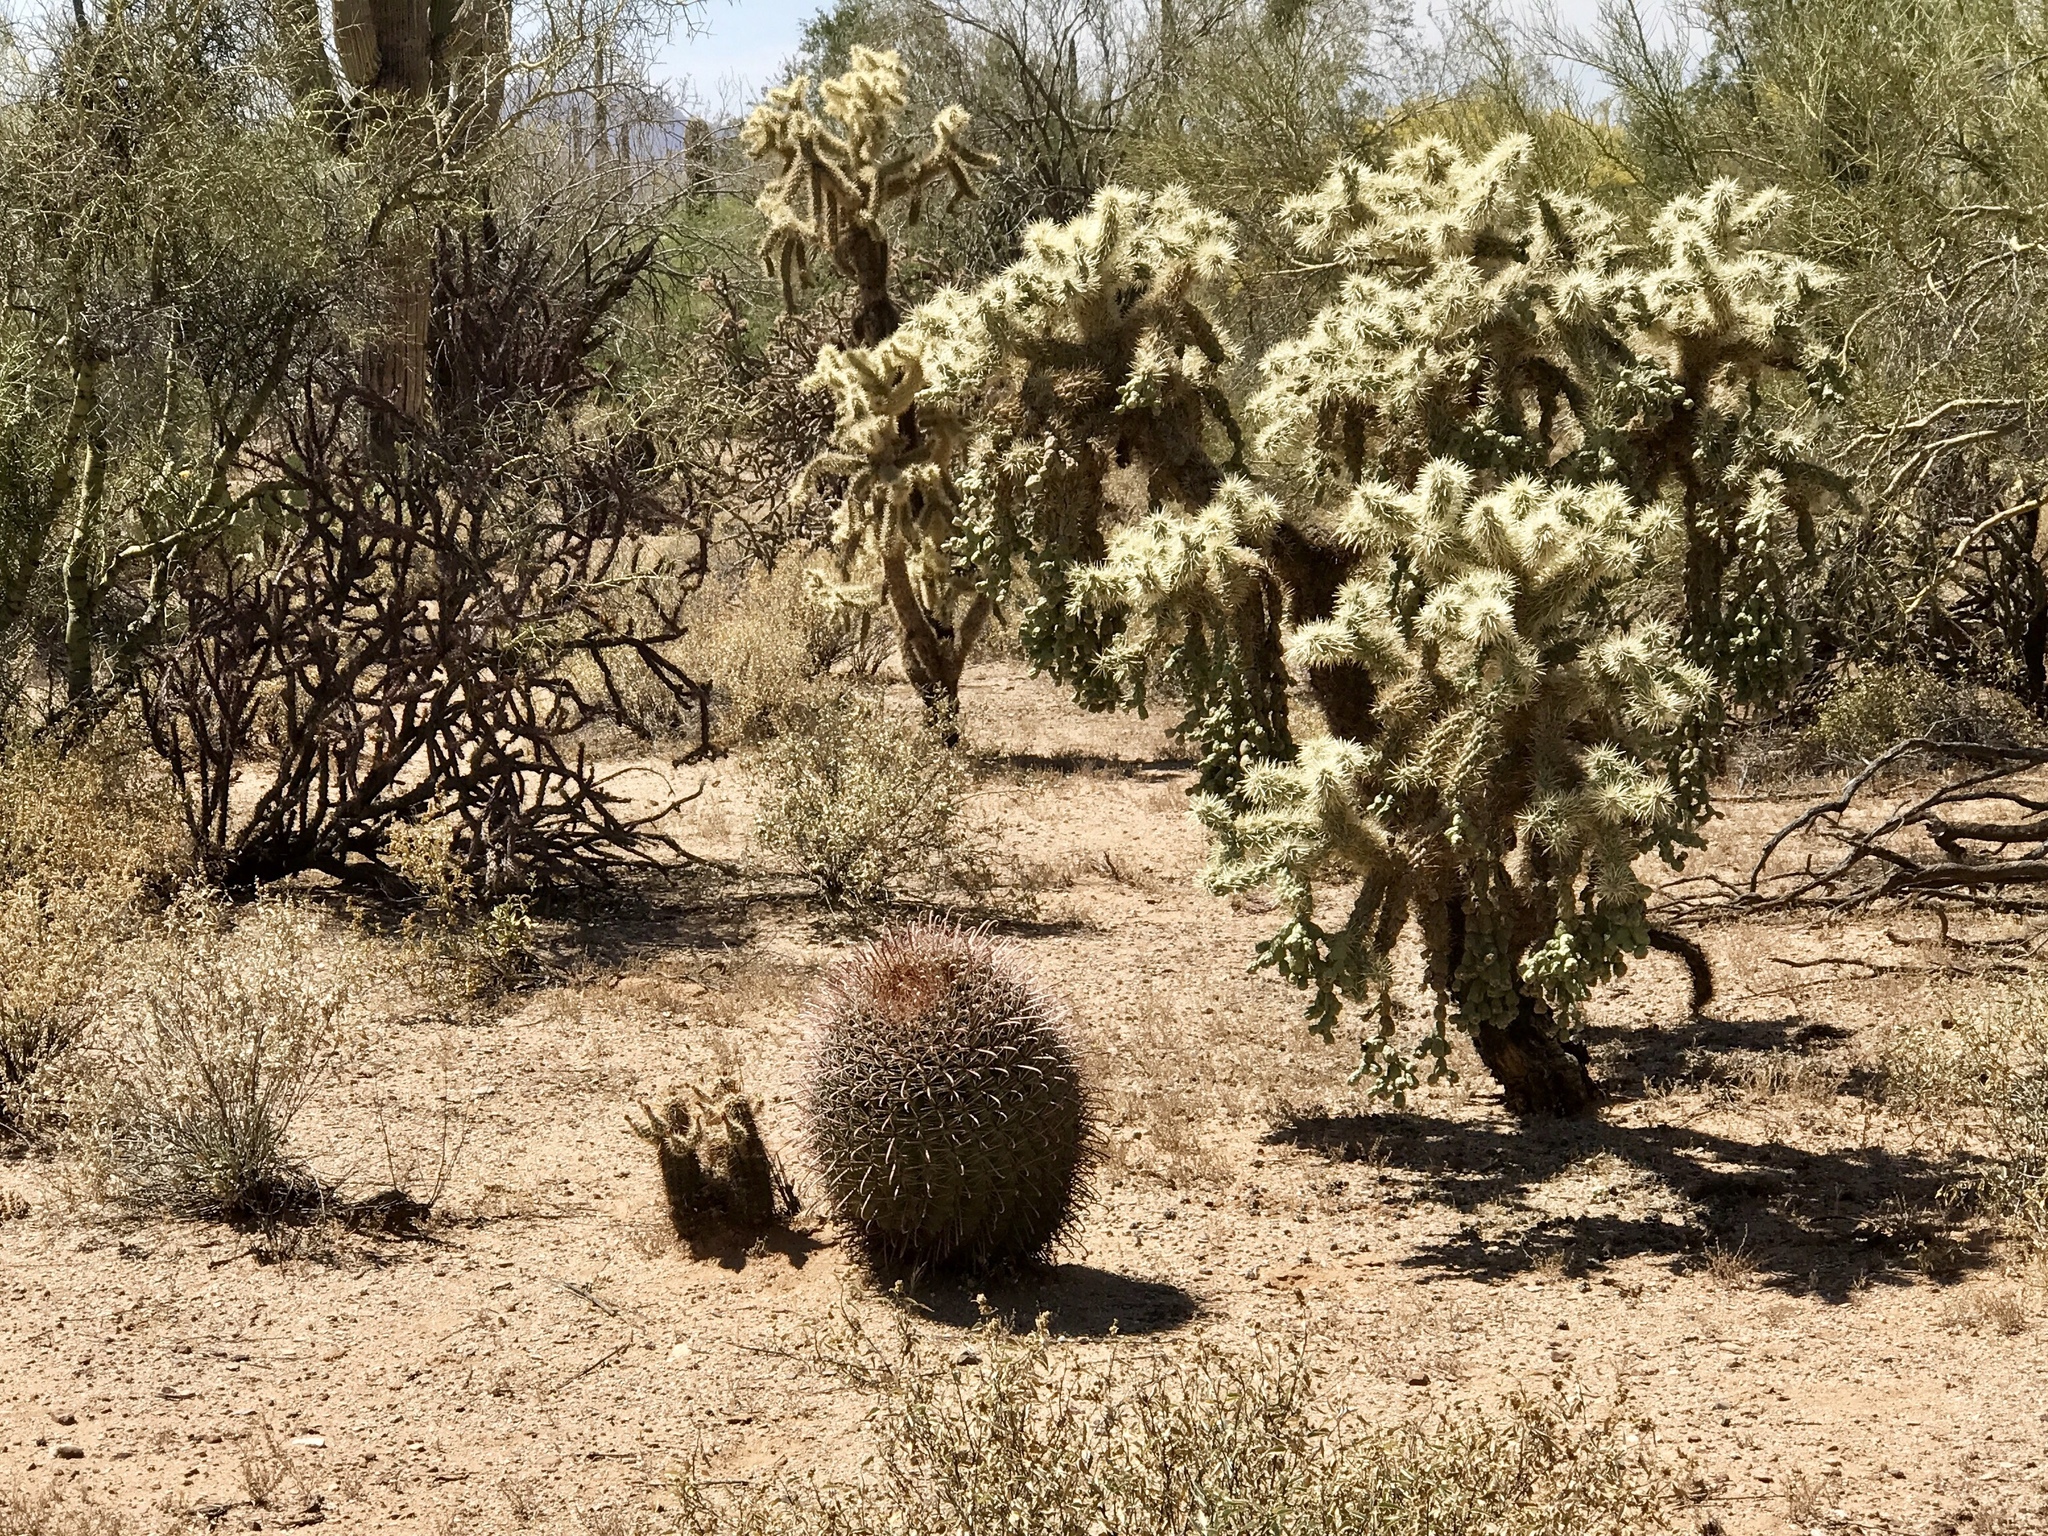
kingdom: Plantae
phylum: Tracheophyta
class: Magnoliopsida
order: Caryophyllales
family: Cactaceae
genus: Cylindropuntia
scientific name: Cylindropuntia fulgida
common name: Jumping cholla
